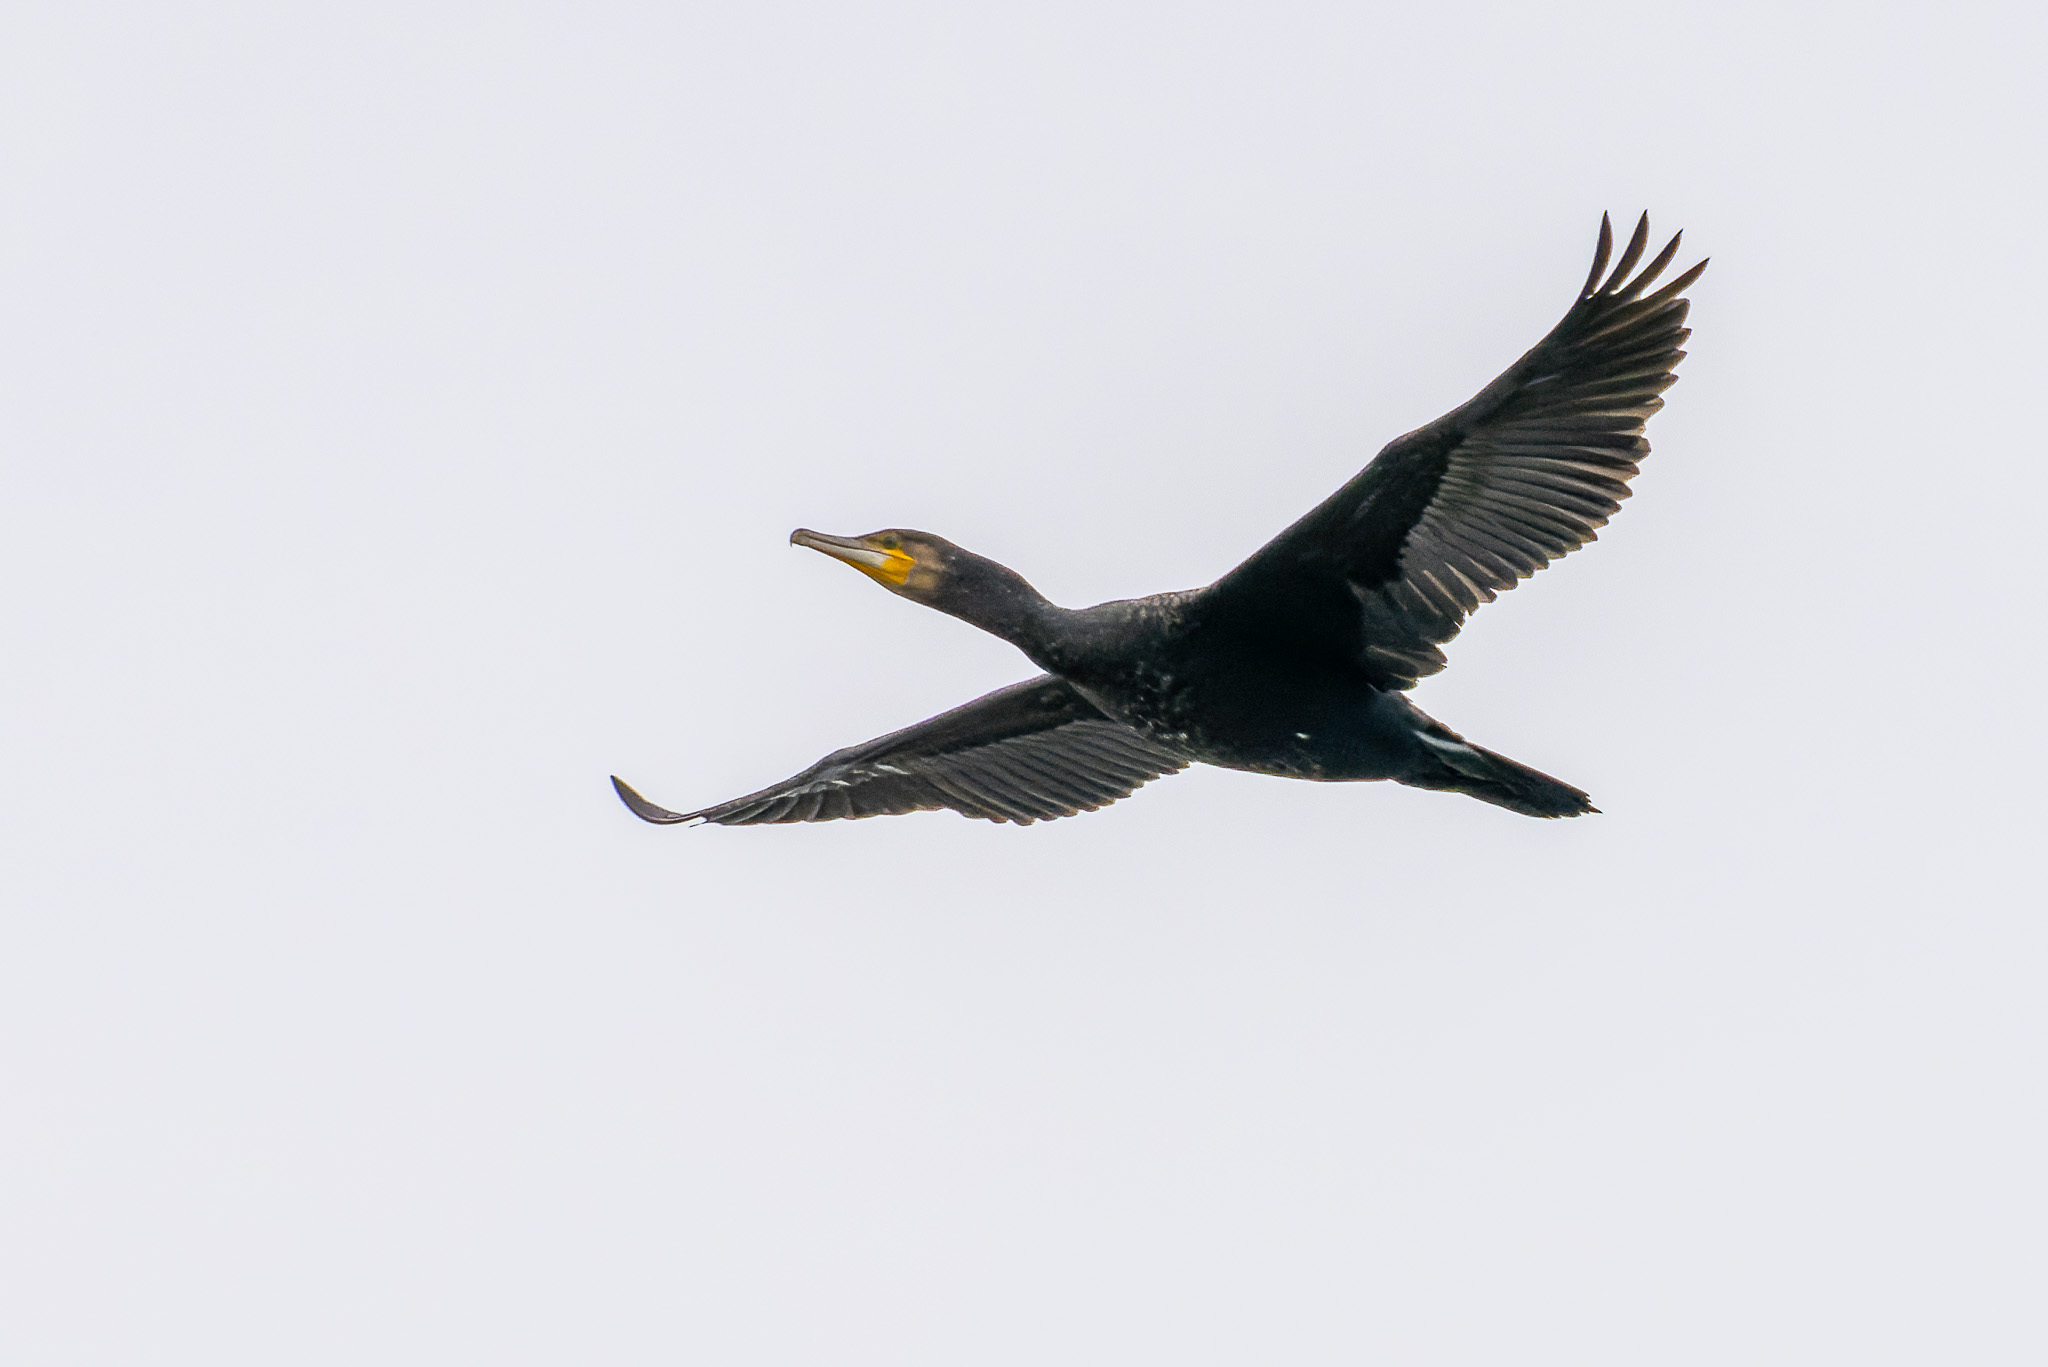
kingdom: Animalia
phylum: Chordata
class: Aves
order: Suliformes
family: Phalacrocoracidae
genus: Phalacrocorax
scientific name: Phalacrocorax carbo
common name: Great cormorant
